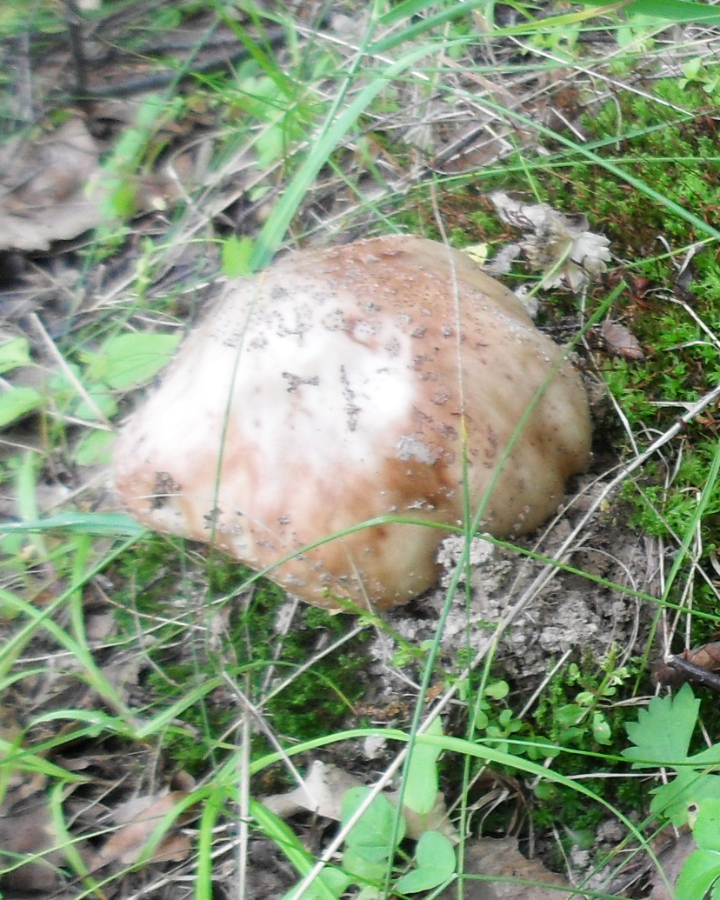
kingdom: Fungi
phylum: Basidiomycota
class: Agaricomycetes
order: Agaricales
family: Amanitaceae
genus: Amanita
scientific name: Amanita rubescens
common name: Blusher
